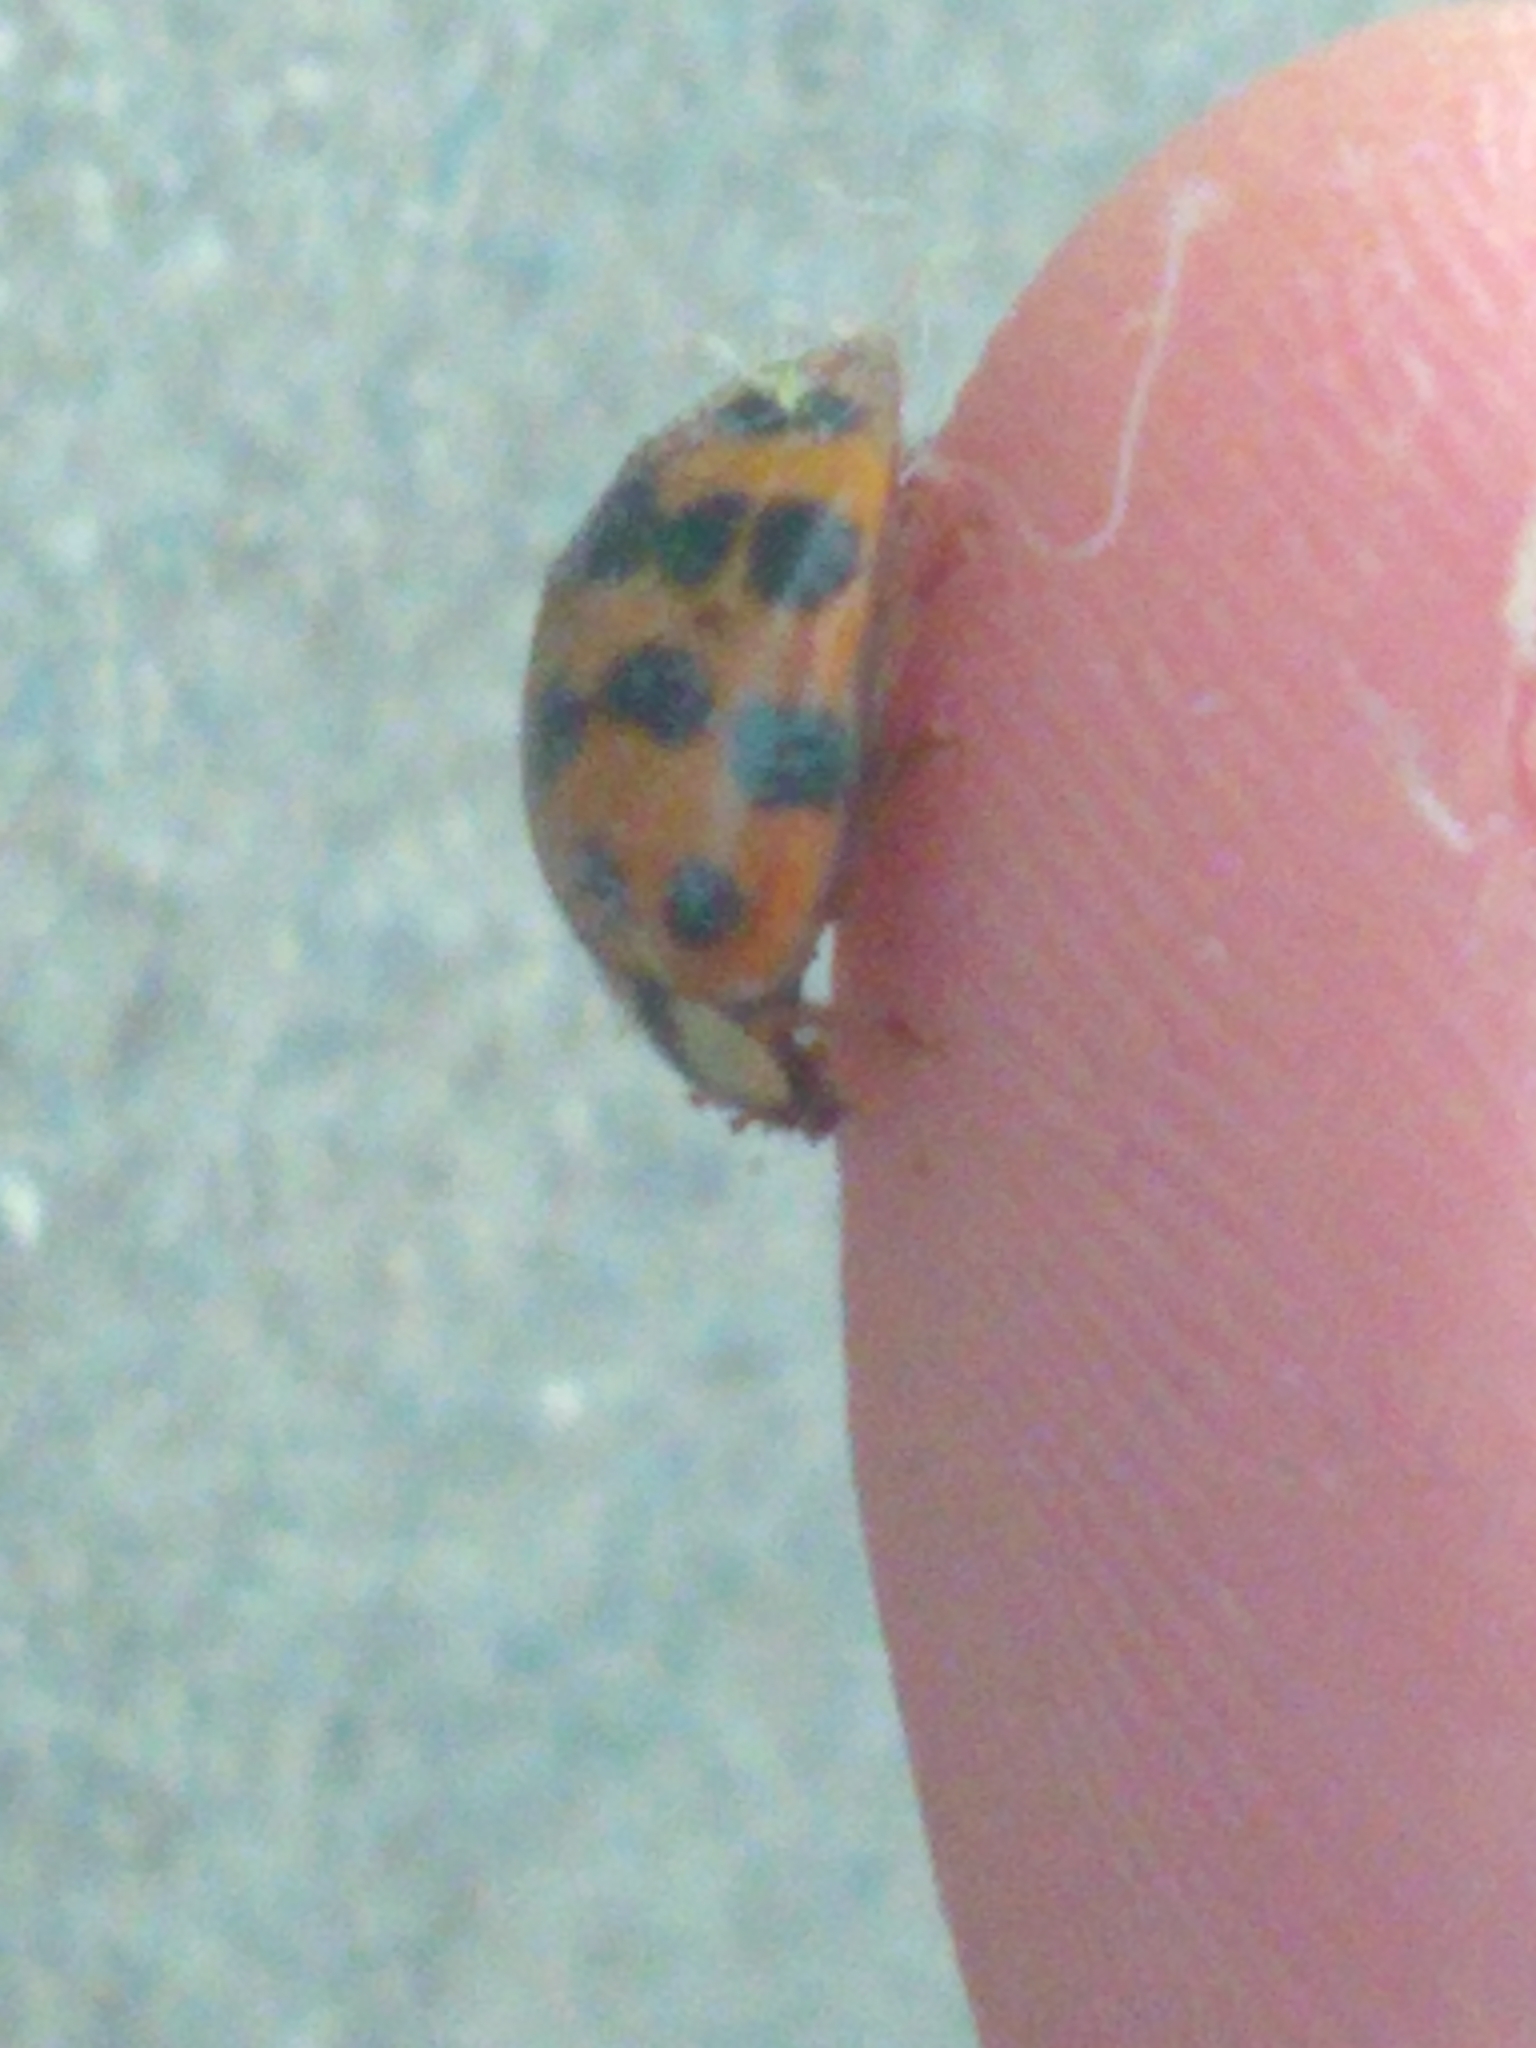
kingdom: Animalia
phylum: Arthropoda
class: Insecta
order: Coleoptera
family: Coccinellidae
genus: Harmonia
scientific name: Harmonia axyridis
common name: Harlequin ladybird
